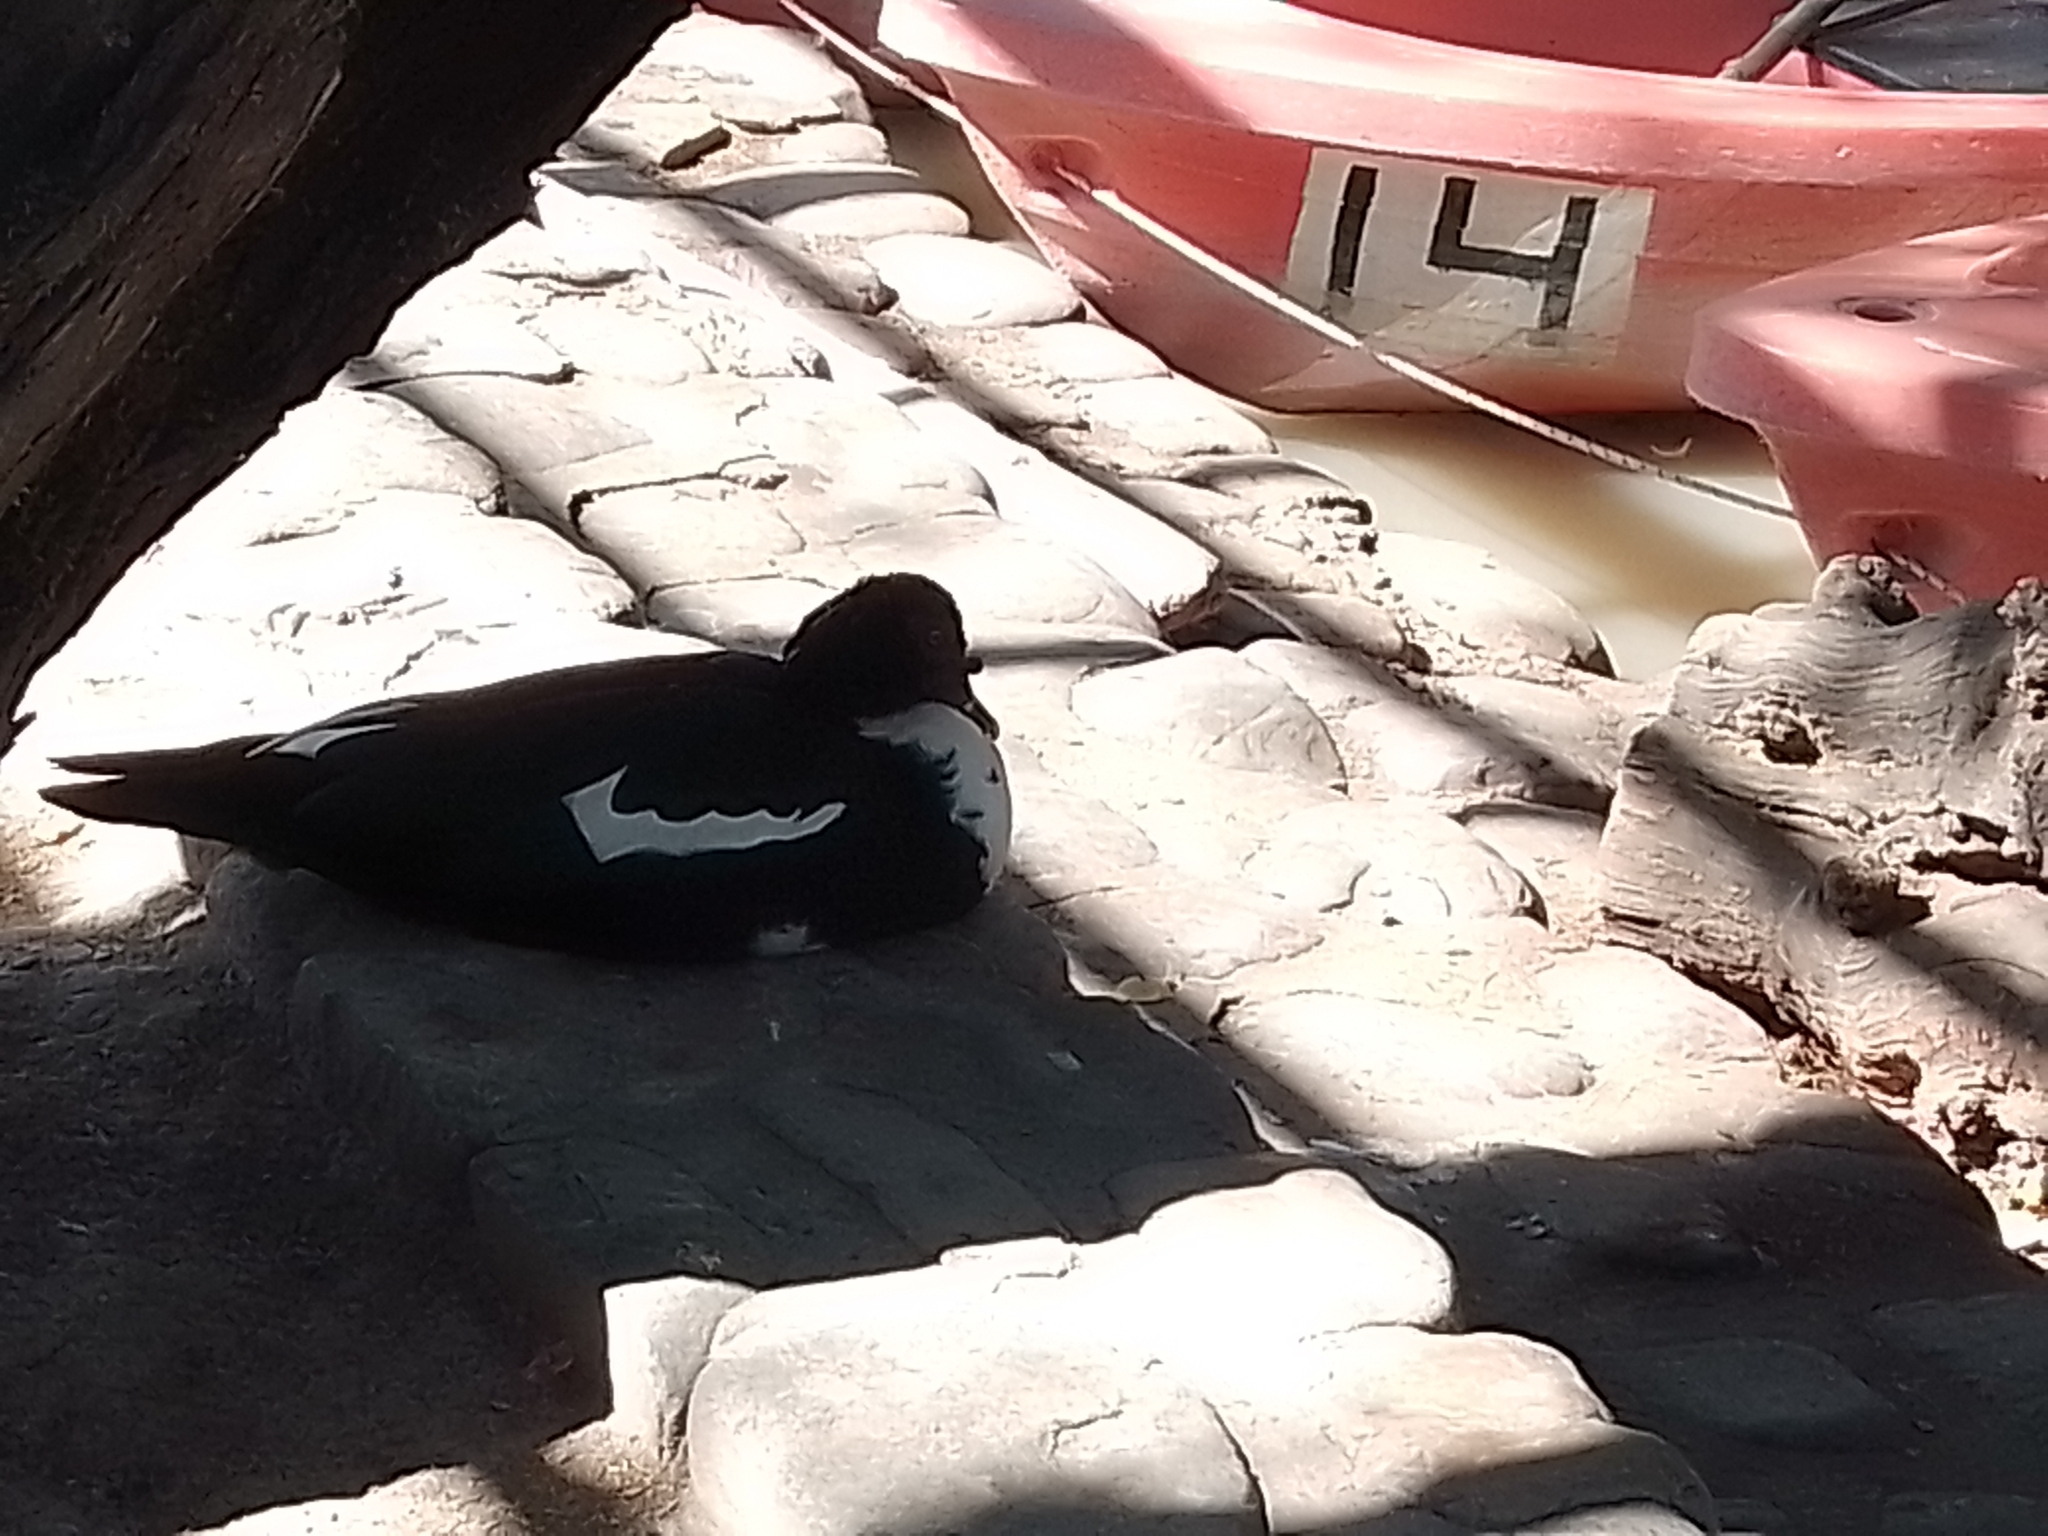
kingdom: Animalia
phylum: Chordata
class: Aves
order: Anseriformes
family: Anatidae
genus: Cairina
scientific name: Cairina moschata
